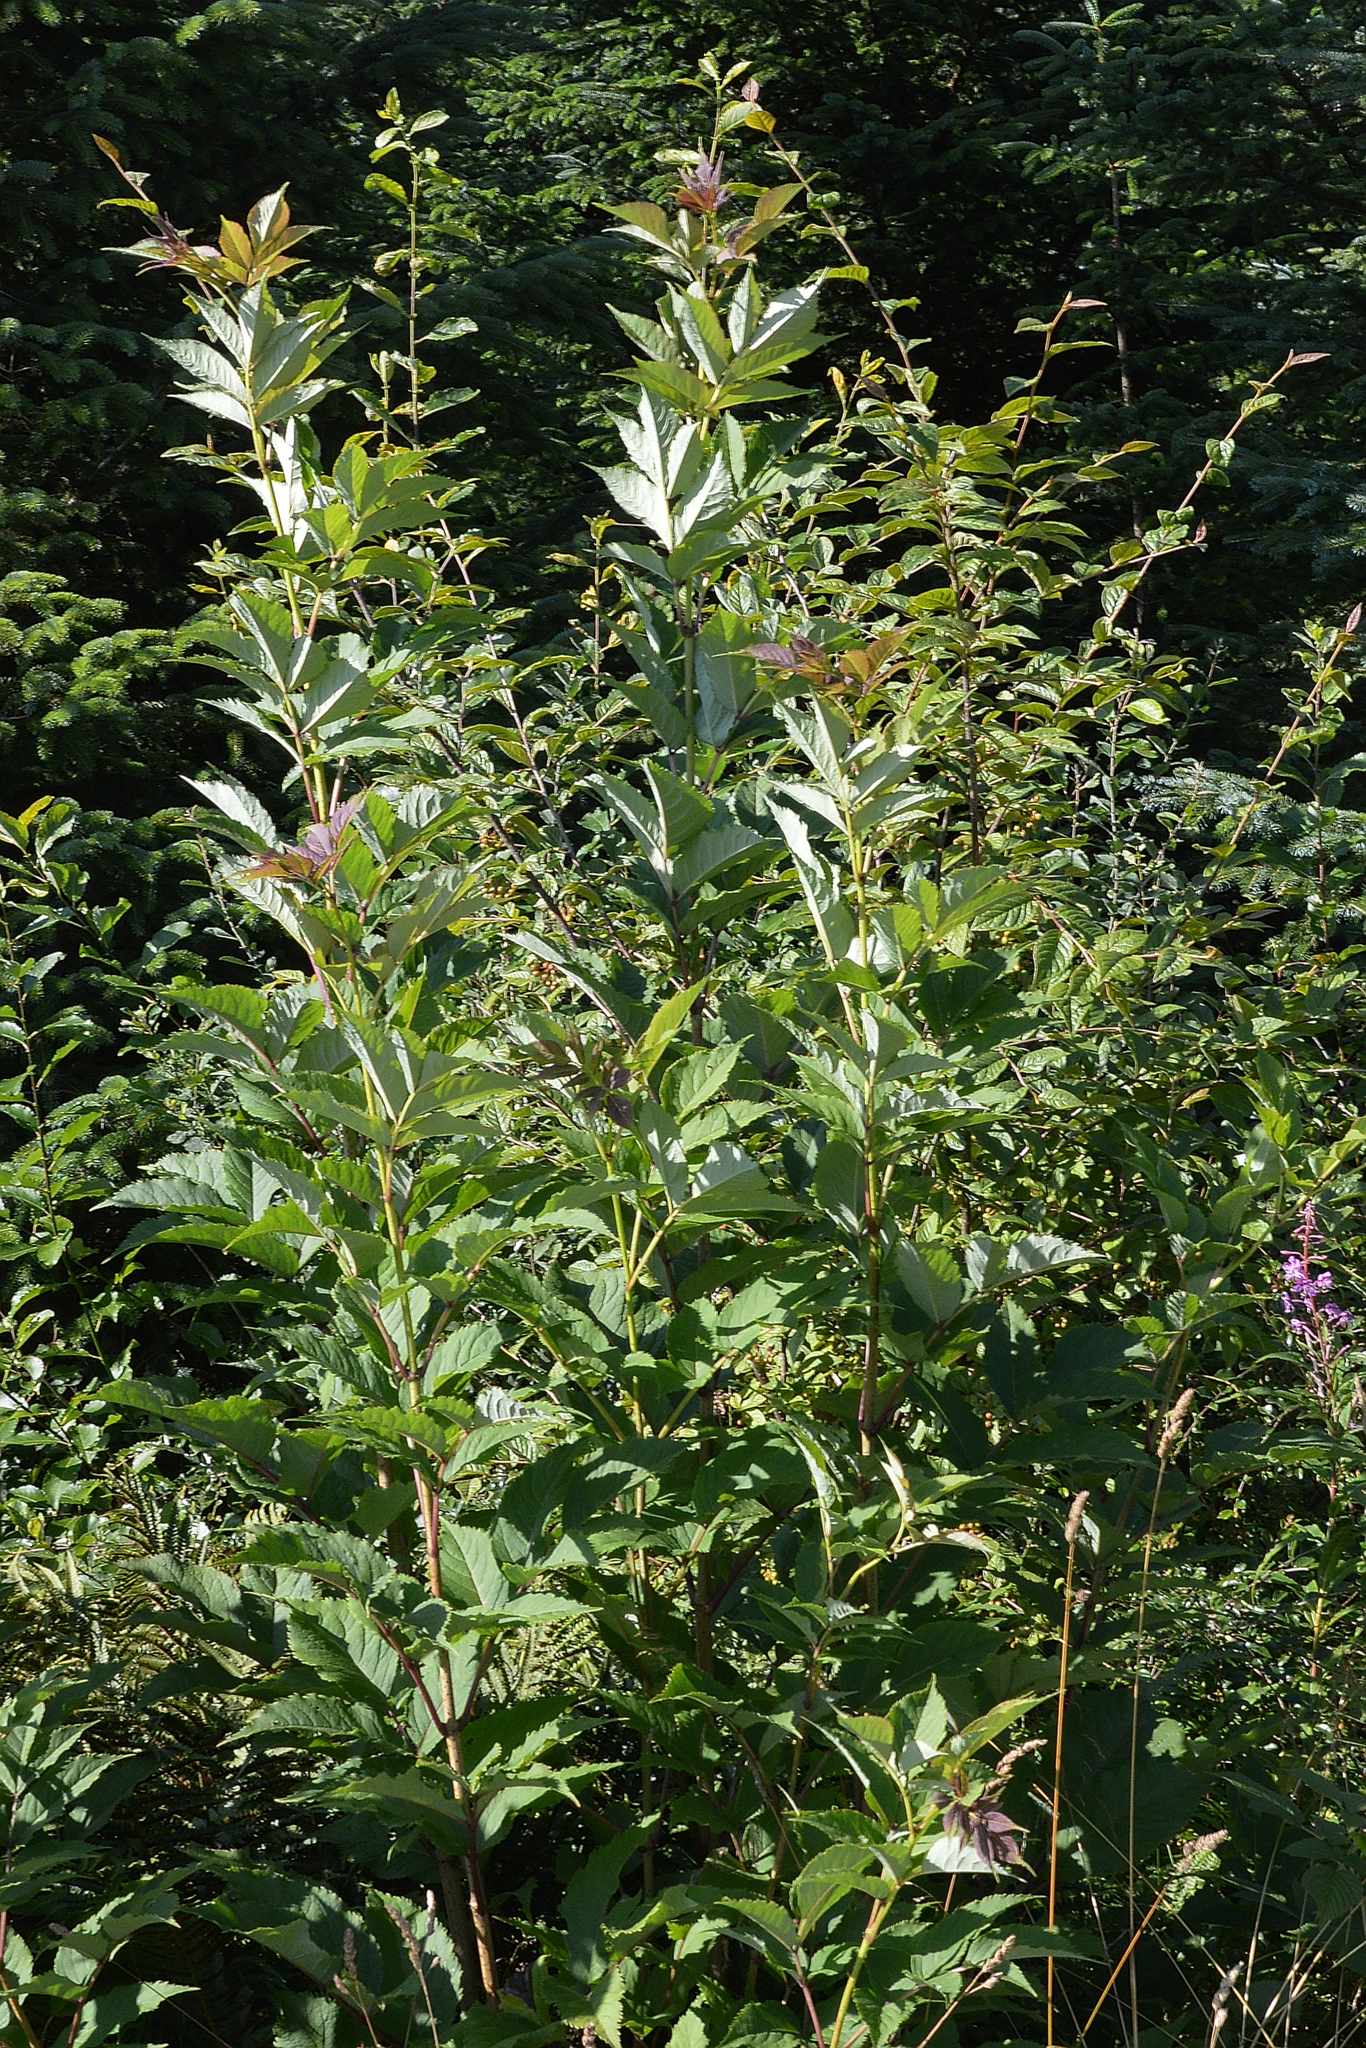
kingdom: Plantae
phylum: Tracheophyta
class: Magnoliopsida
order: Dipsacales
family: Viburnaceae
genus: Sambucus
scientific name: Sambucus racemosa
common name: Red-berried elder
